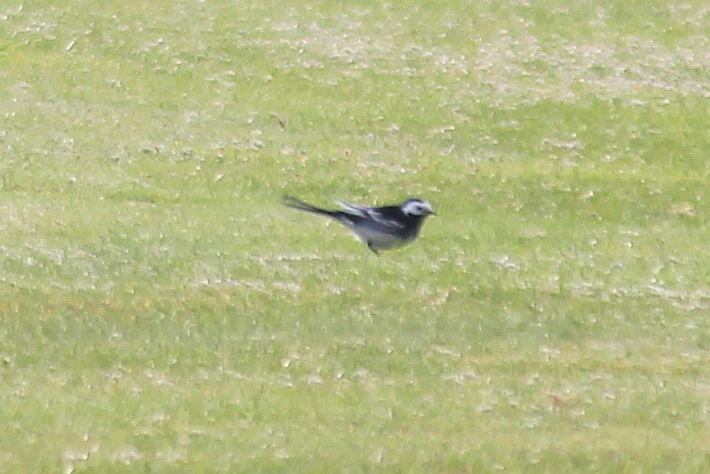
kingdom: Animalia
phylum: Chordata
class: Aves
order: Passeriformes
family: Motacillidae
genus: Motacilla
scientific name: Motacilla alba
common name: White wagtail
